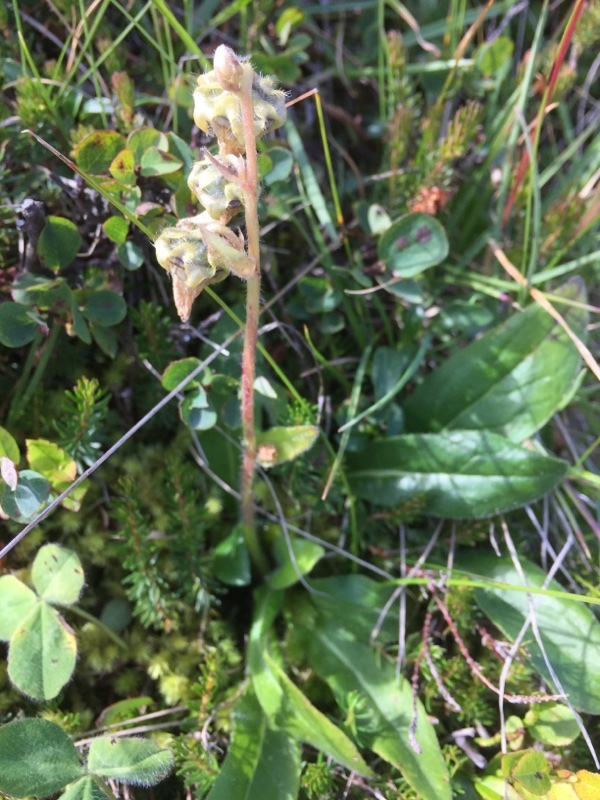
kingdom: Plantae
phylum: Tracheophyta
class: Magnoliopsida
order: Asterales
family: Campanulaceae
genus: Campanula
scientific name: Campanula barbata
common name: Bearded bellflower
